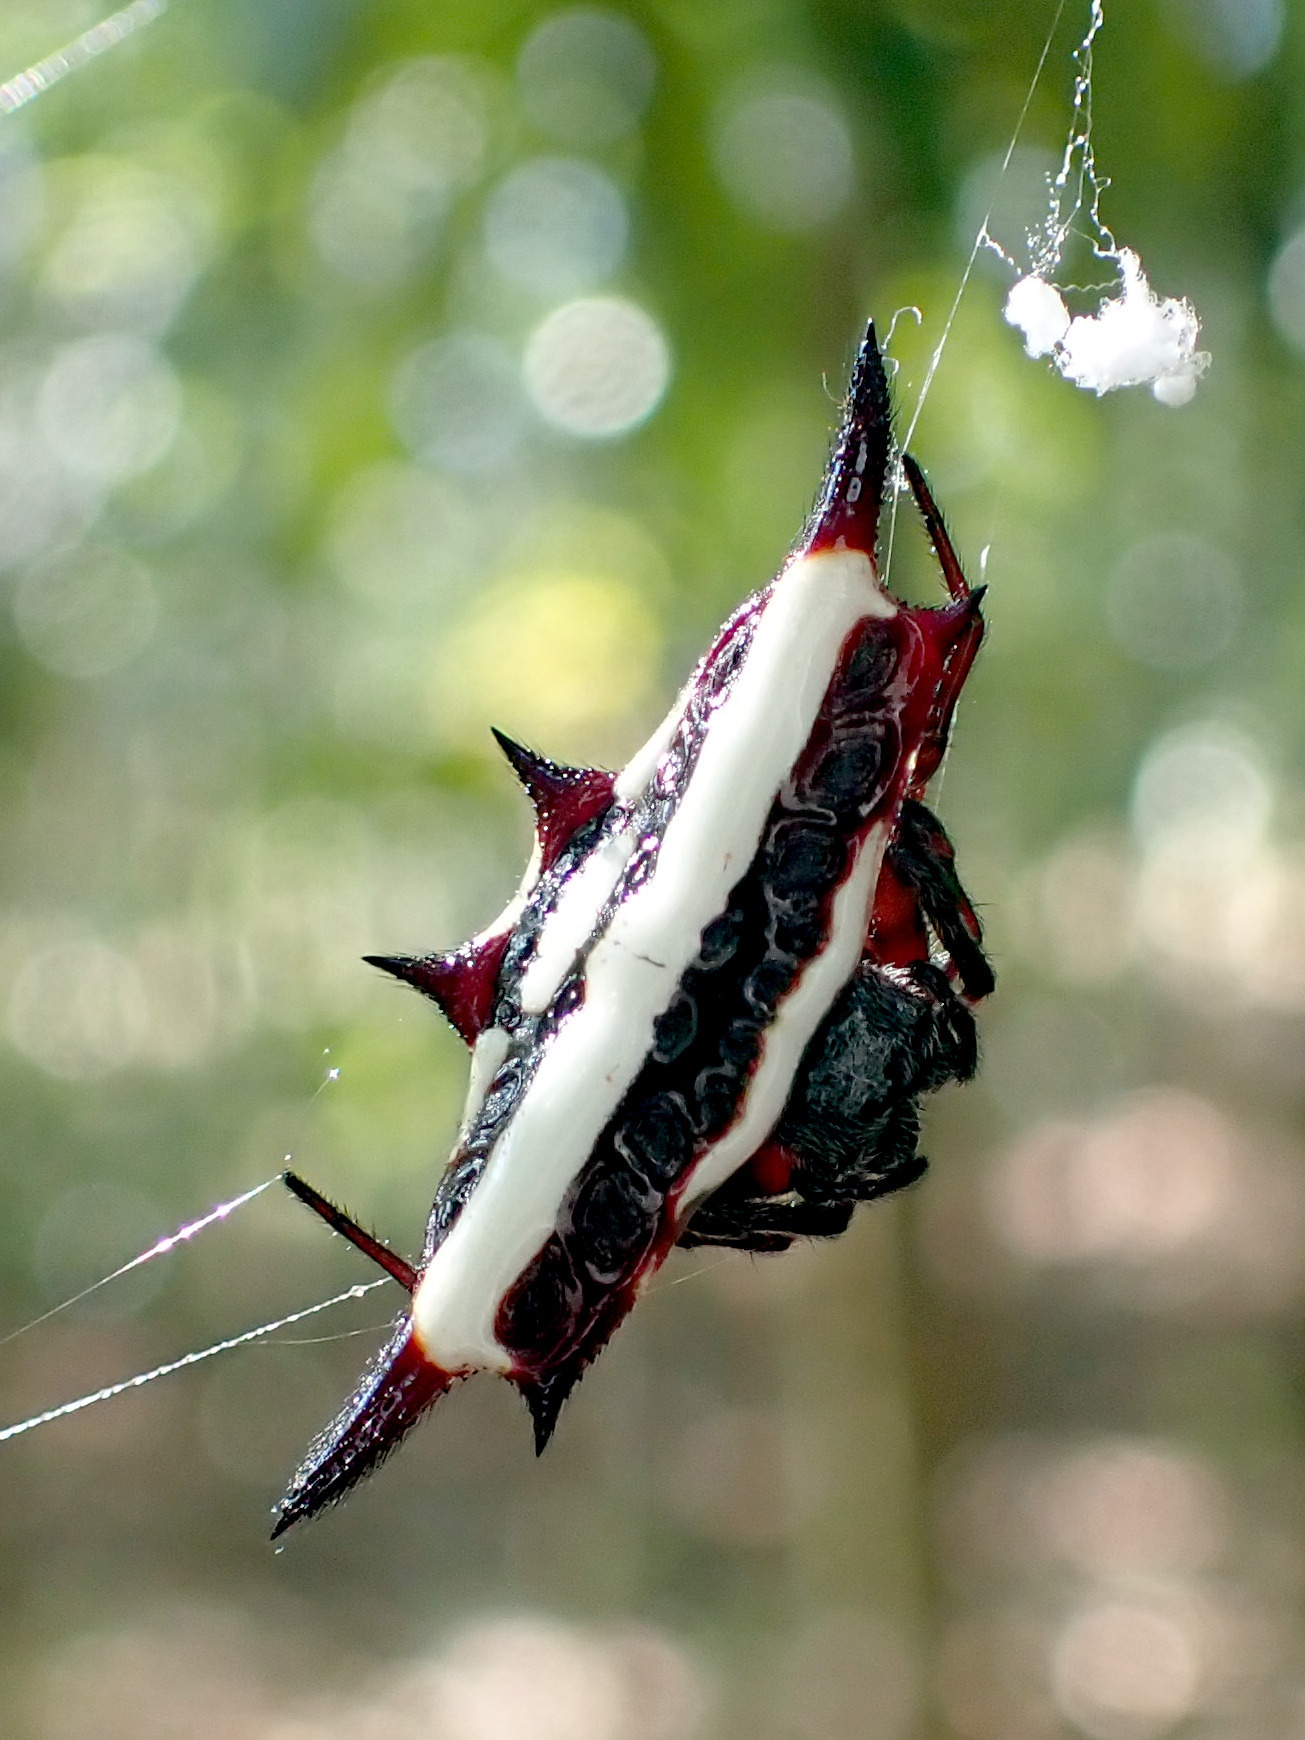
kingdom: Animalia
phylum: Arthropoda
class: Arachnida
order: Araneae
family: Araneidae
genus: Gasteracantha
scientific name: Gasteracantha fornicata
